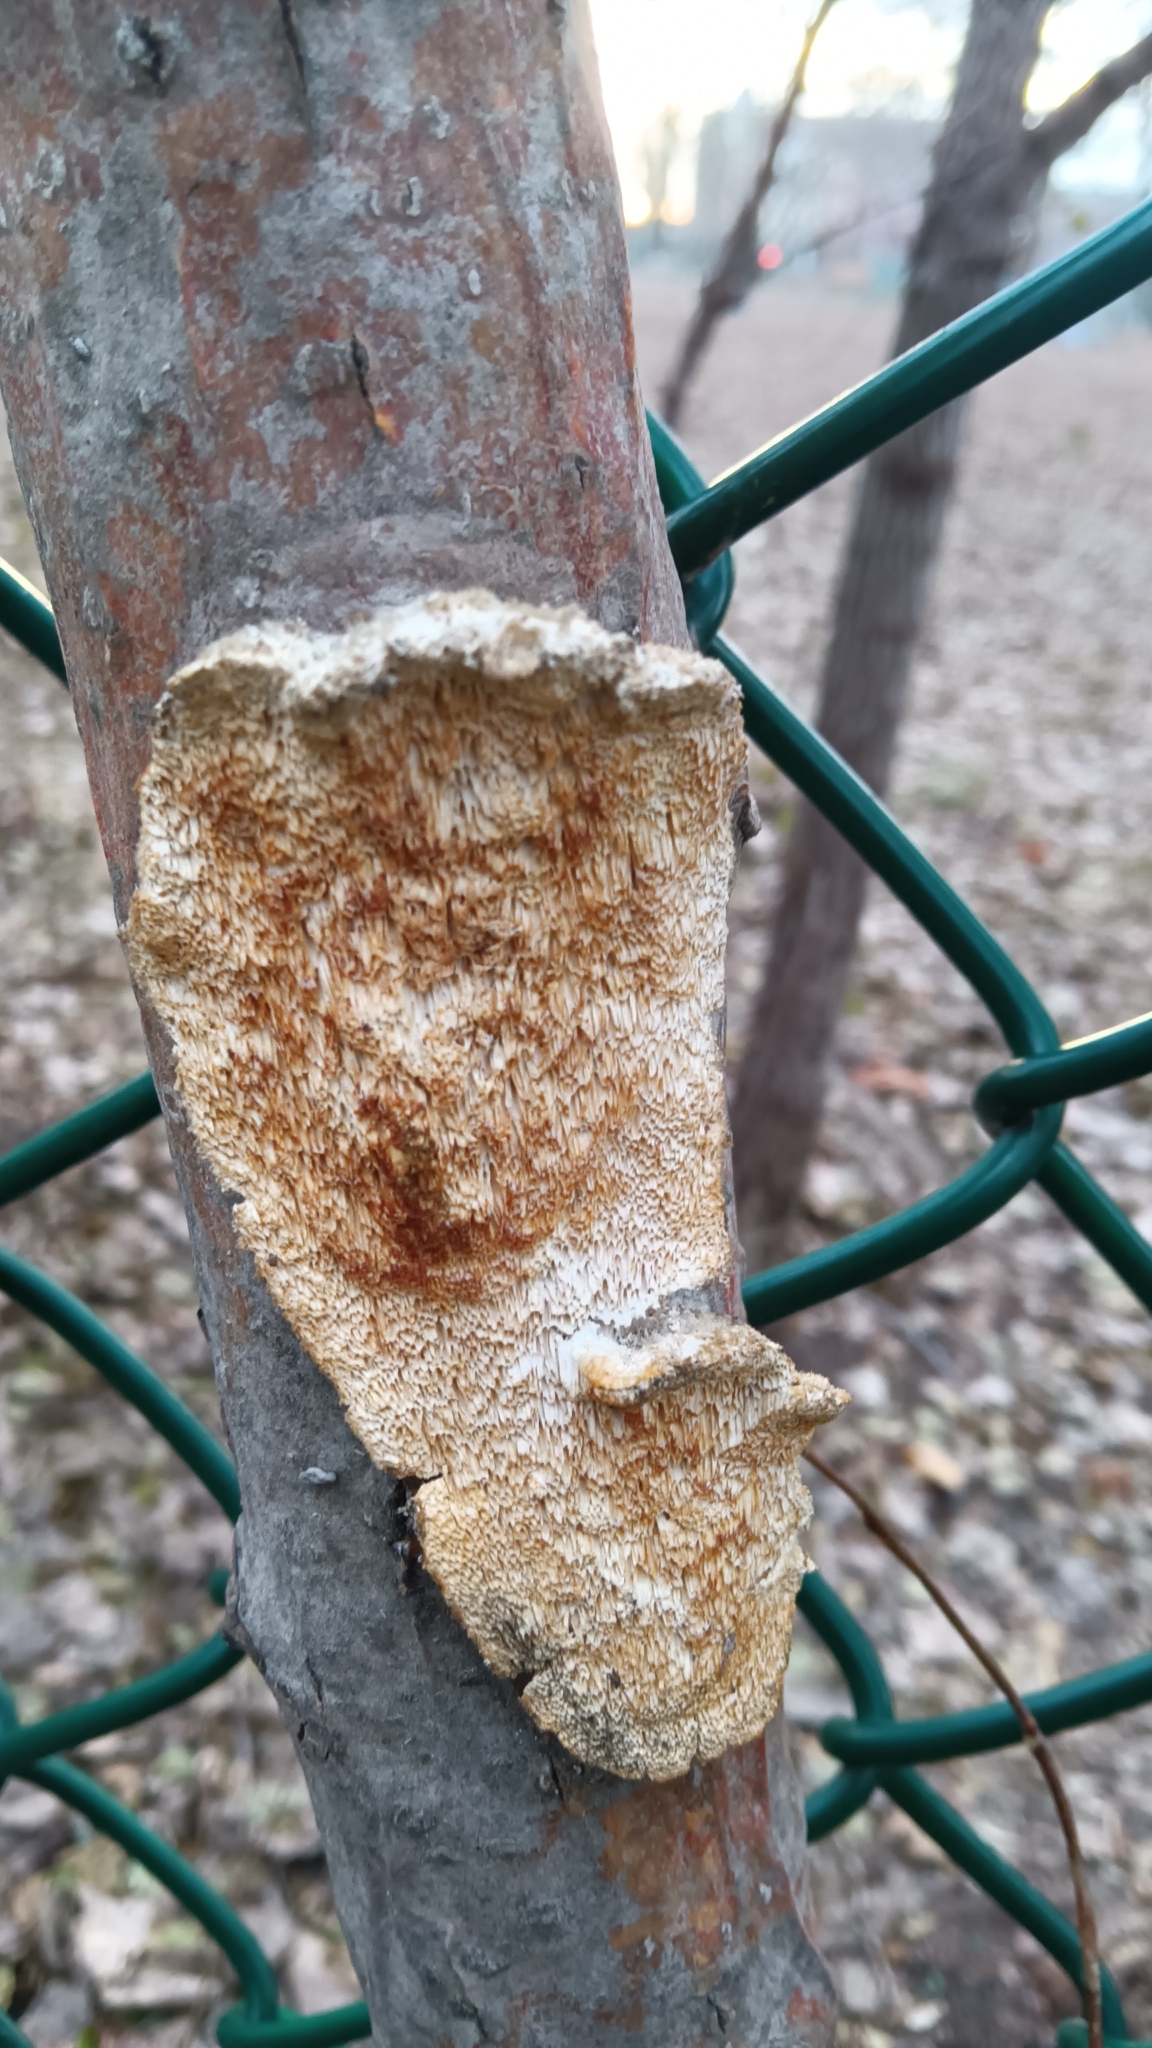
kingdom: Fungi
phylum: Basidiomycota
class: Agaricomycetes
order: Polyporales
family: Irpicaceae
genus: Irpex
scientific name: Irpex lacteus
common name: Milk-white toothed polypore
